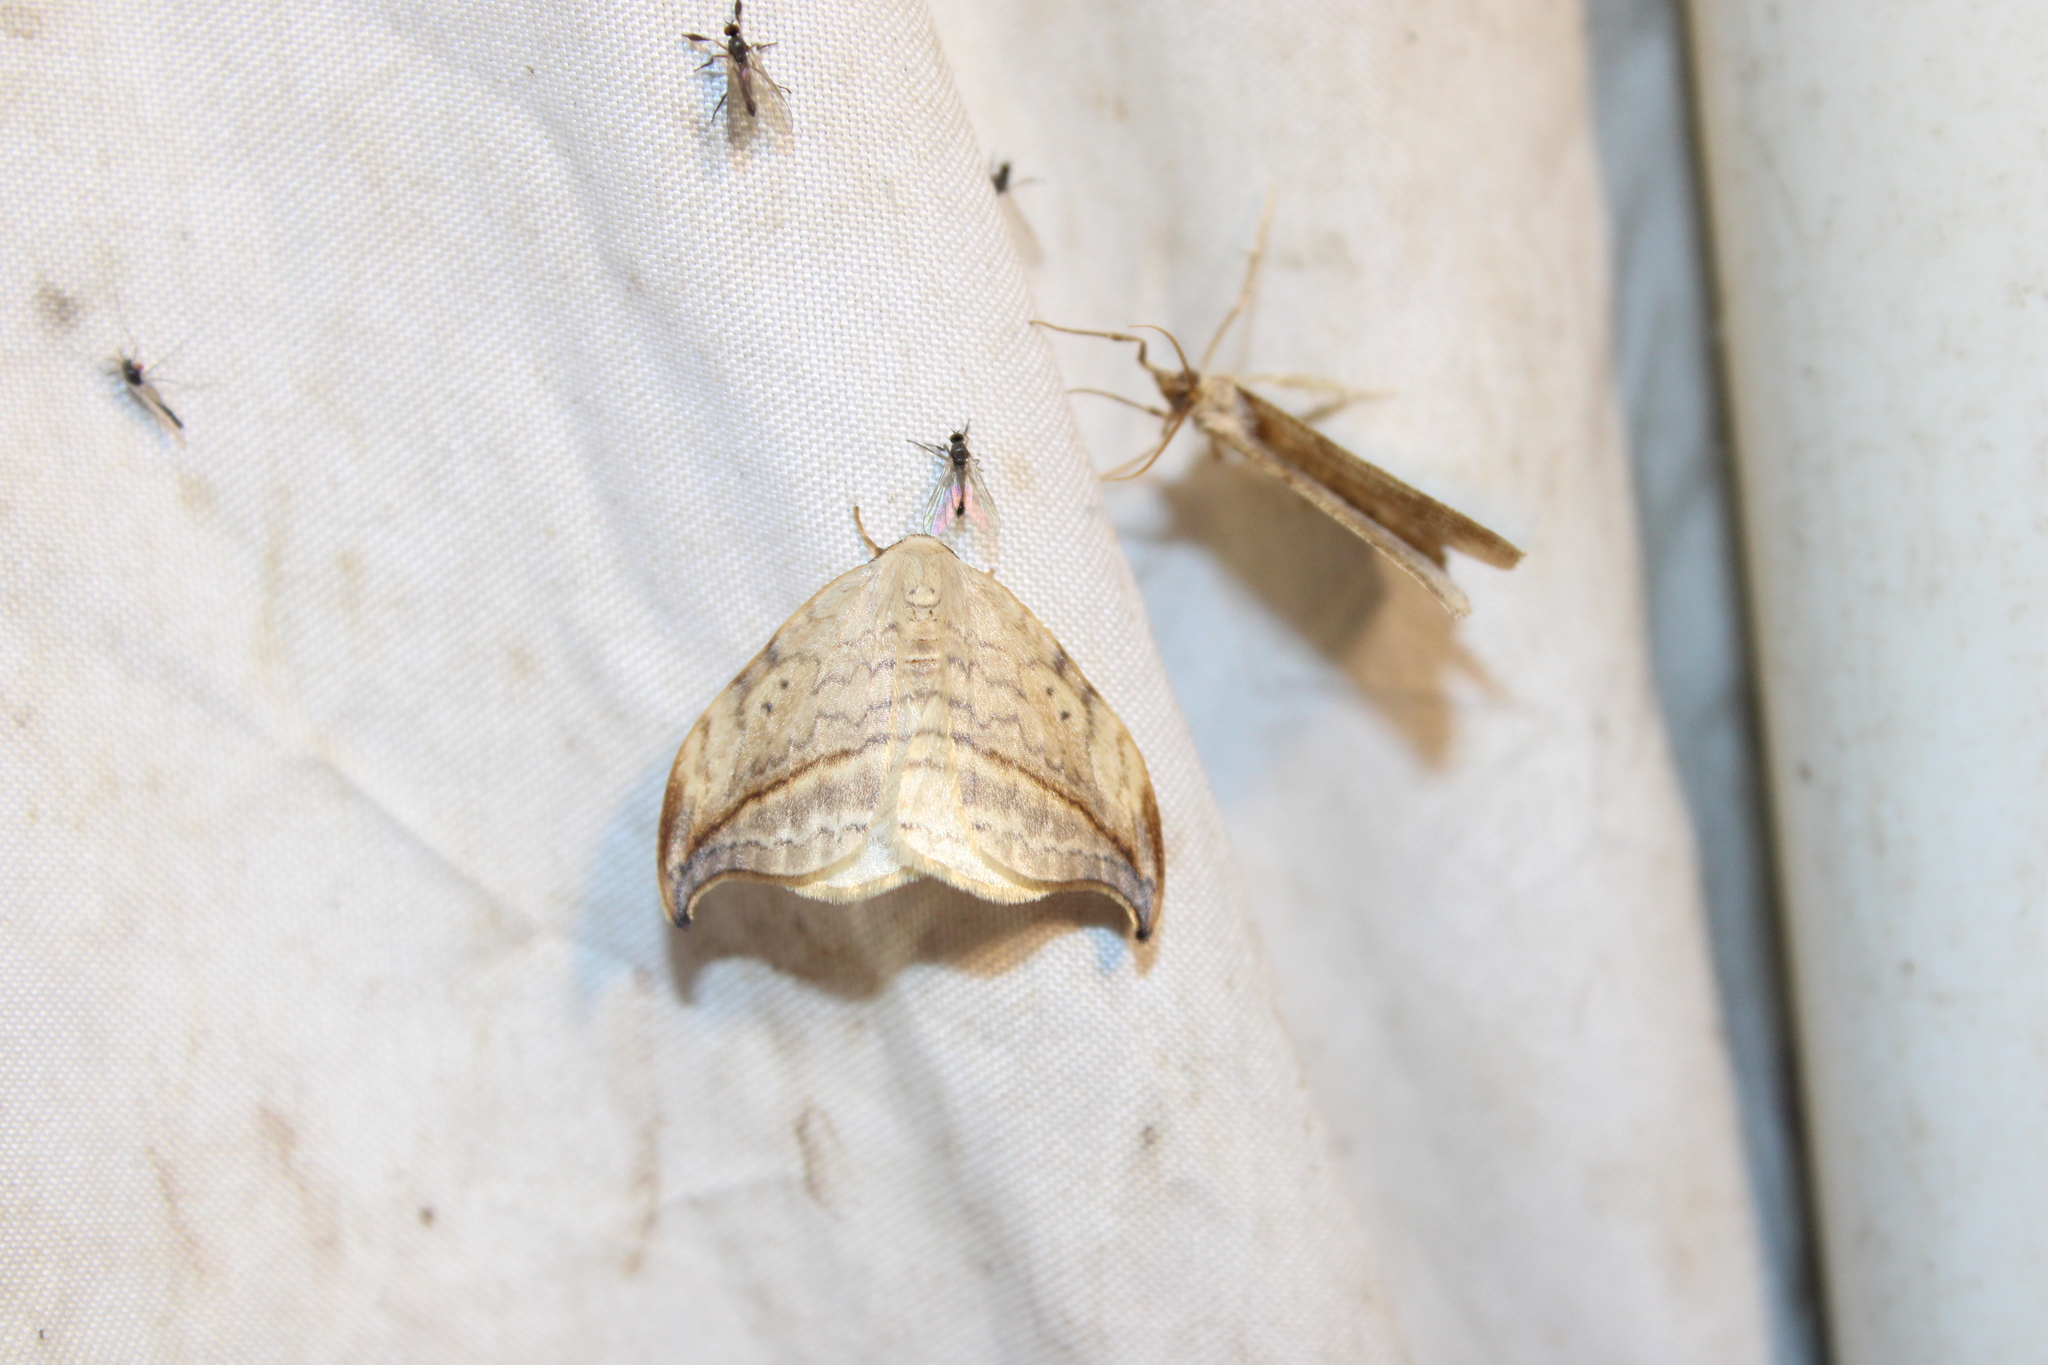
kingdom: Animalia
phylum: Arthropoda
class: Insecta
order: Lepidoptera
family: Drepanidae
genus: Drepana
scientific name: Drepana arcuata
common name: Arched hooktip moth
